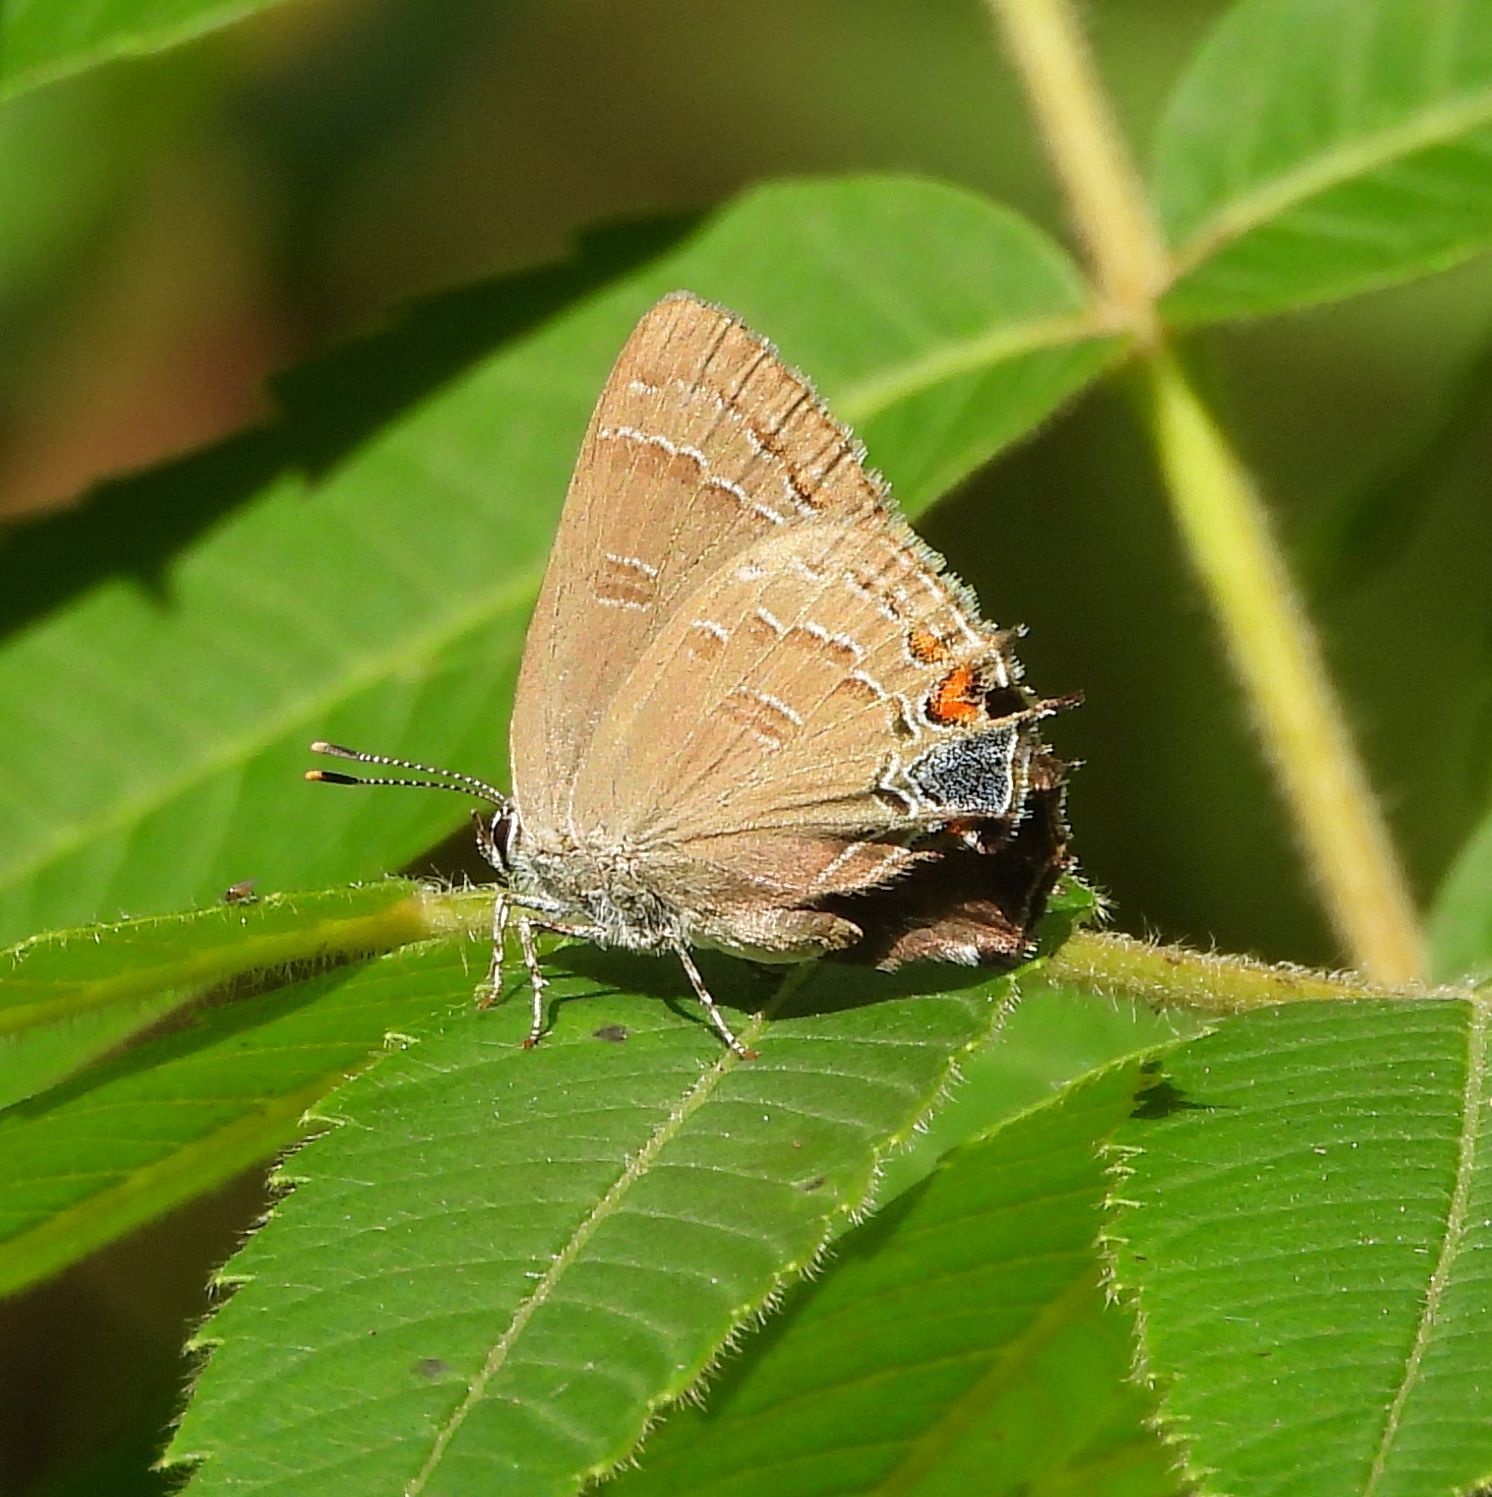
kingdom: Animalia
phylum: Arthropoda
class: Insecta
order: Lepidoptera
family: Lycaenidae
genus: Satyrium
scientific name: Satyrium calanus
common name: Banded hairstreak
